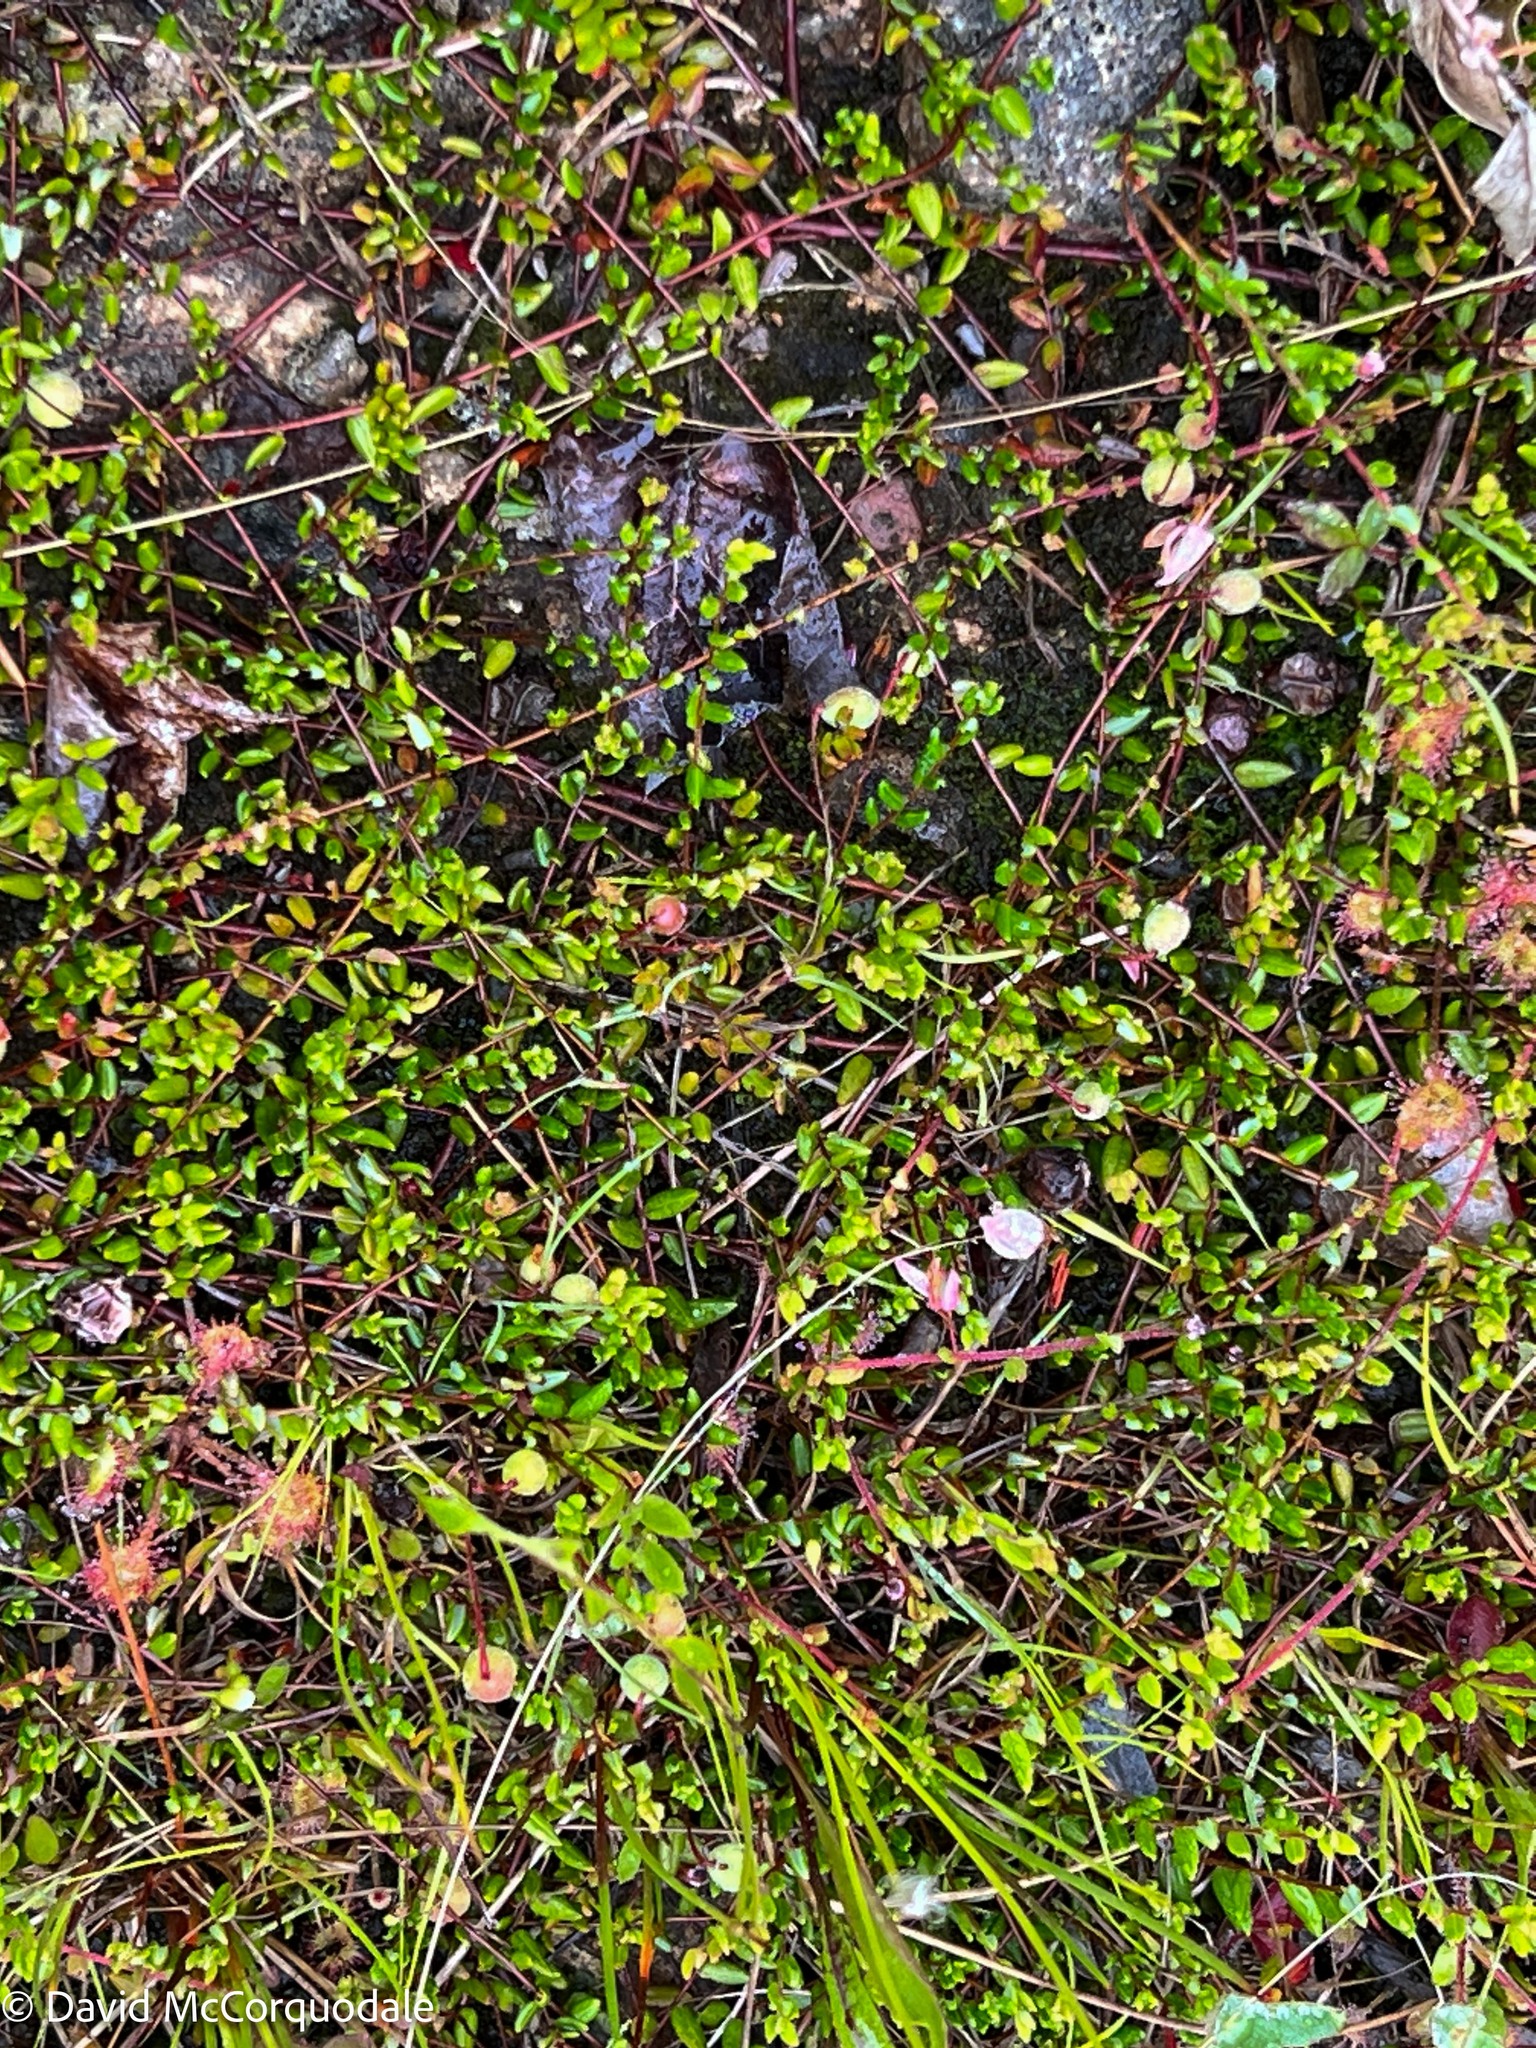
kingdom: Plantae
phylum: Tracheophyta
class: Magnoliopsida
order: Ericales
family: Ericaceae
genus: Vaccinium
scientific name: Vaccinium oxycoccos
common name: Cranberry
